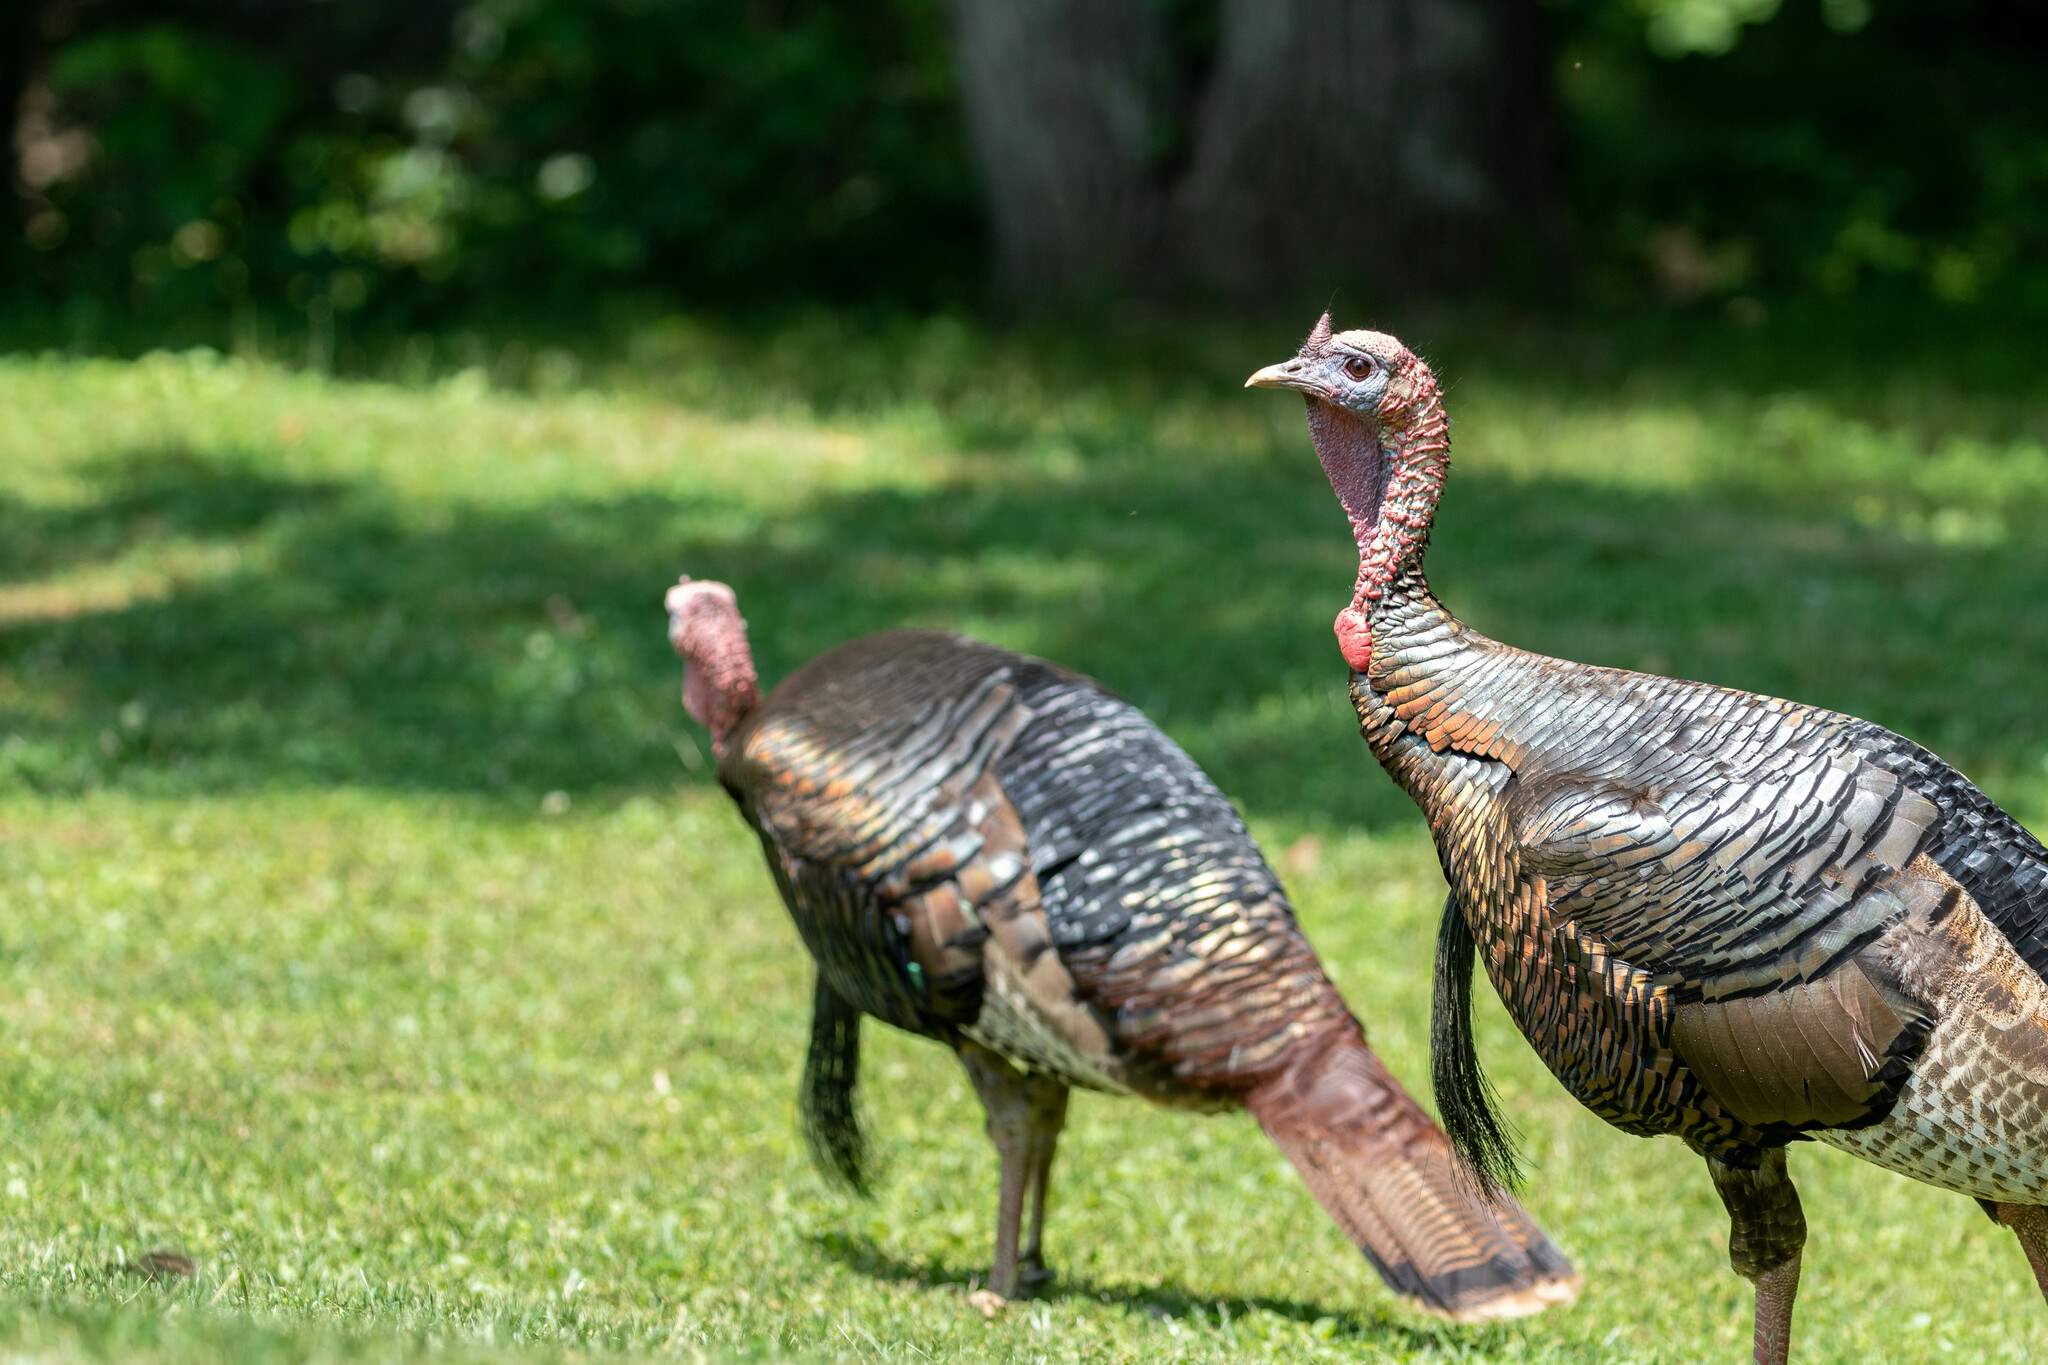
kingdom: Animalia
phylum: Chordata
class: Aves
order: Galliformes
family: Phasianidae
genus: Meleagris
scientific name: Meleagris gallopavo
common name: Wild turkey
